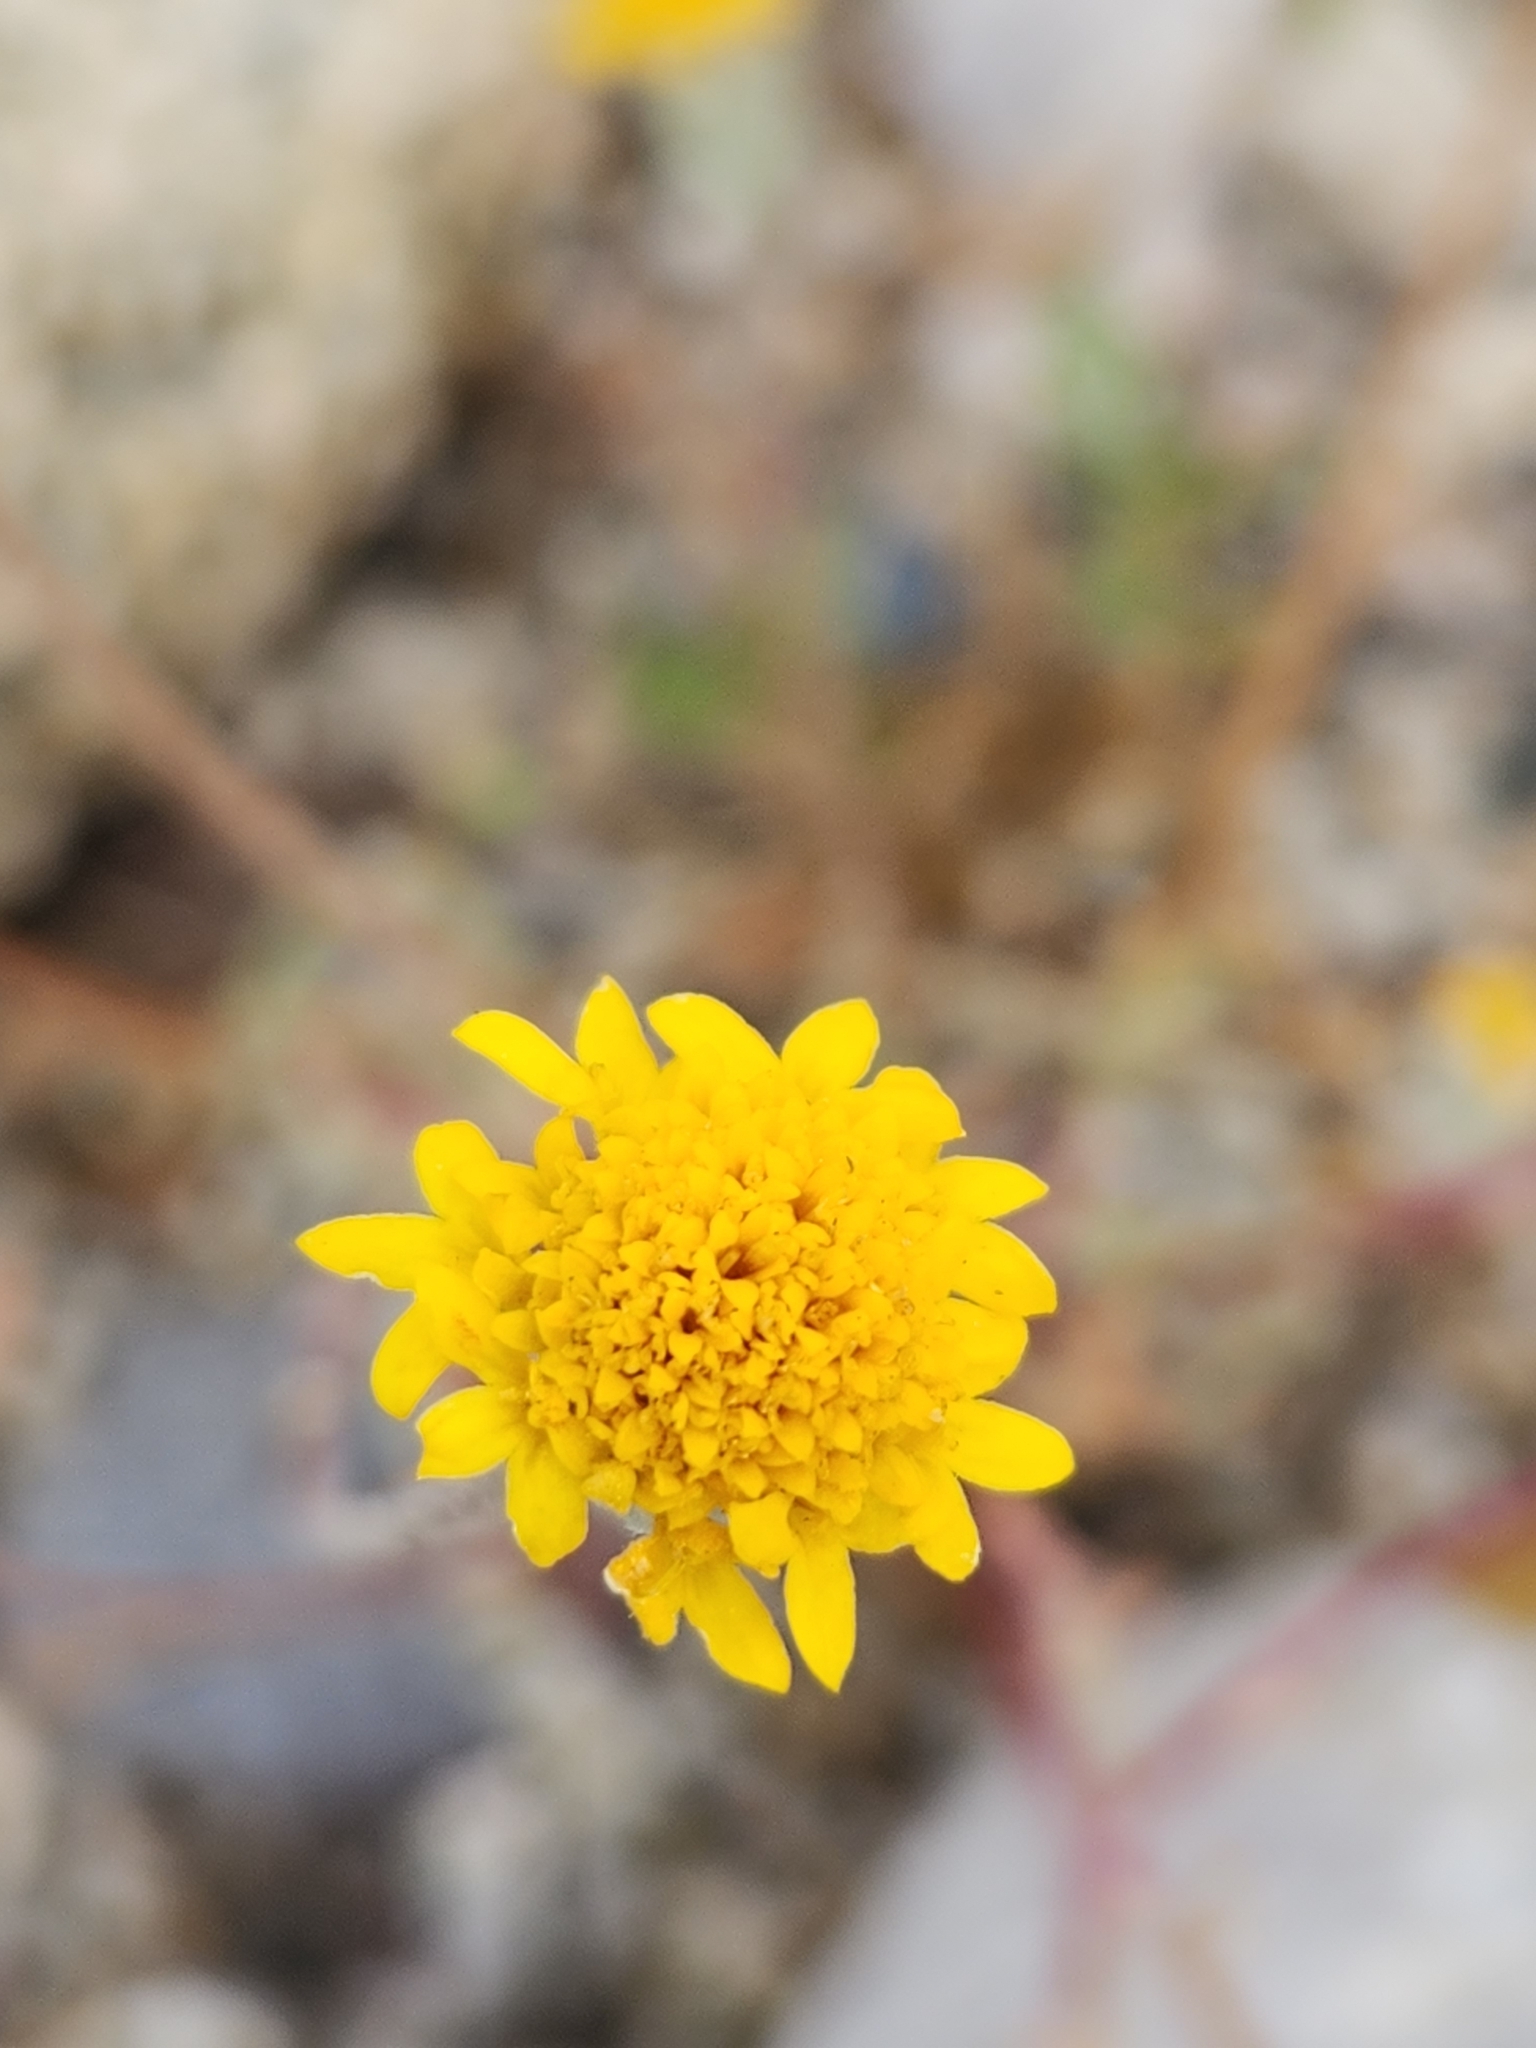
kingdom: Plantae
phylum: Tracheophyta
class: Magnoliopsida
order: Asterales
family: Asteraceae
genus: Chaenactis
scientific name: Chaenactis glabriuscula
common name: Yellow pincushion
